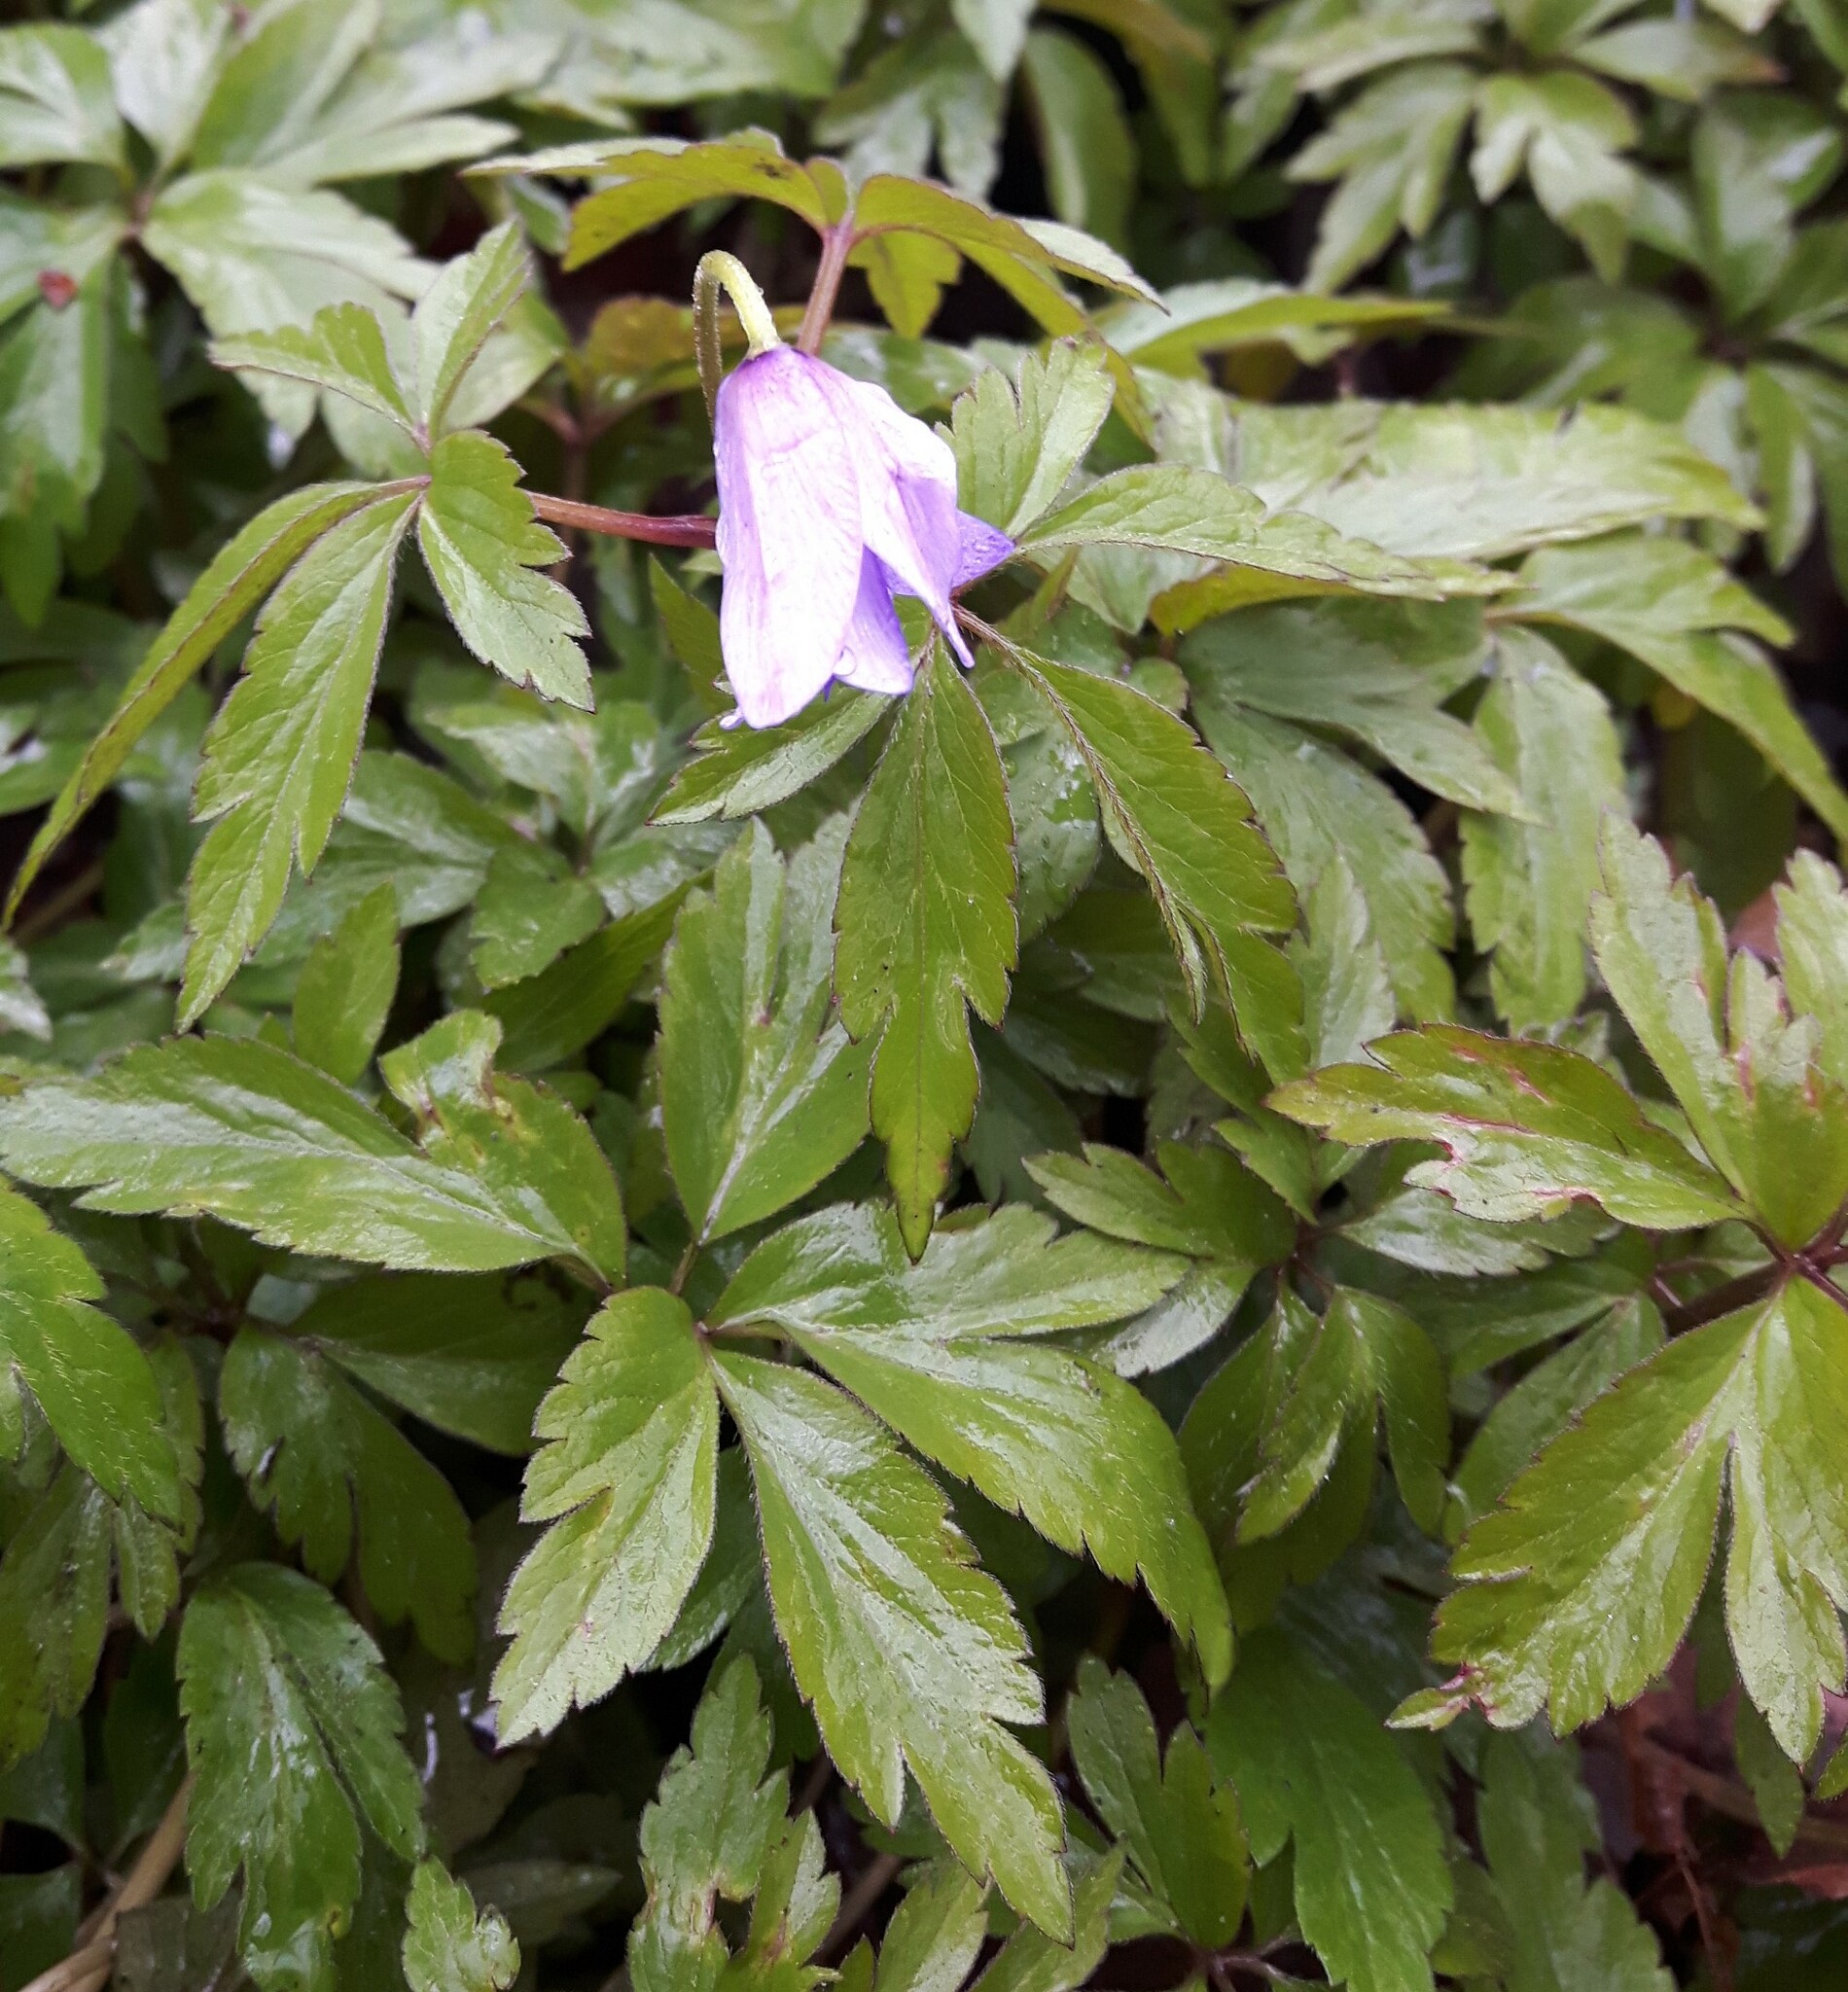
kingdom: Plantae
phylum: Tracheophyta
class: Magnoliopsida
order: Ranunculales
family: Ranunculaceae
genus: Anemone
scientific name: Anemone nemorosa
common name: Wood anemone
